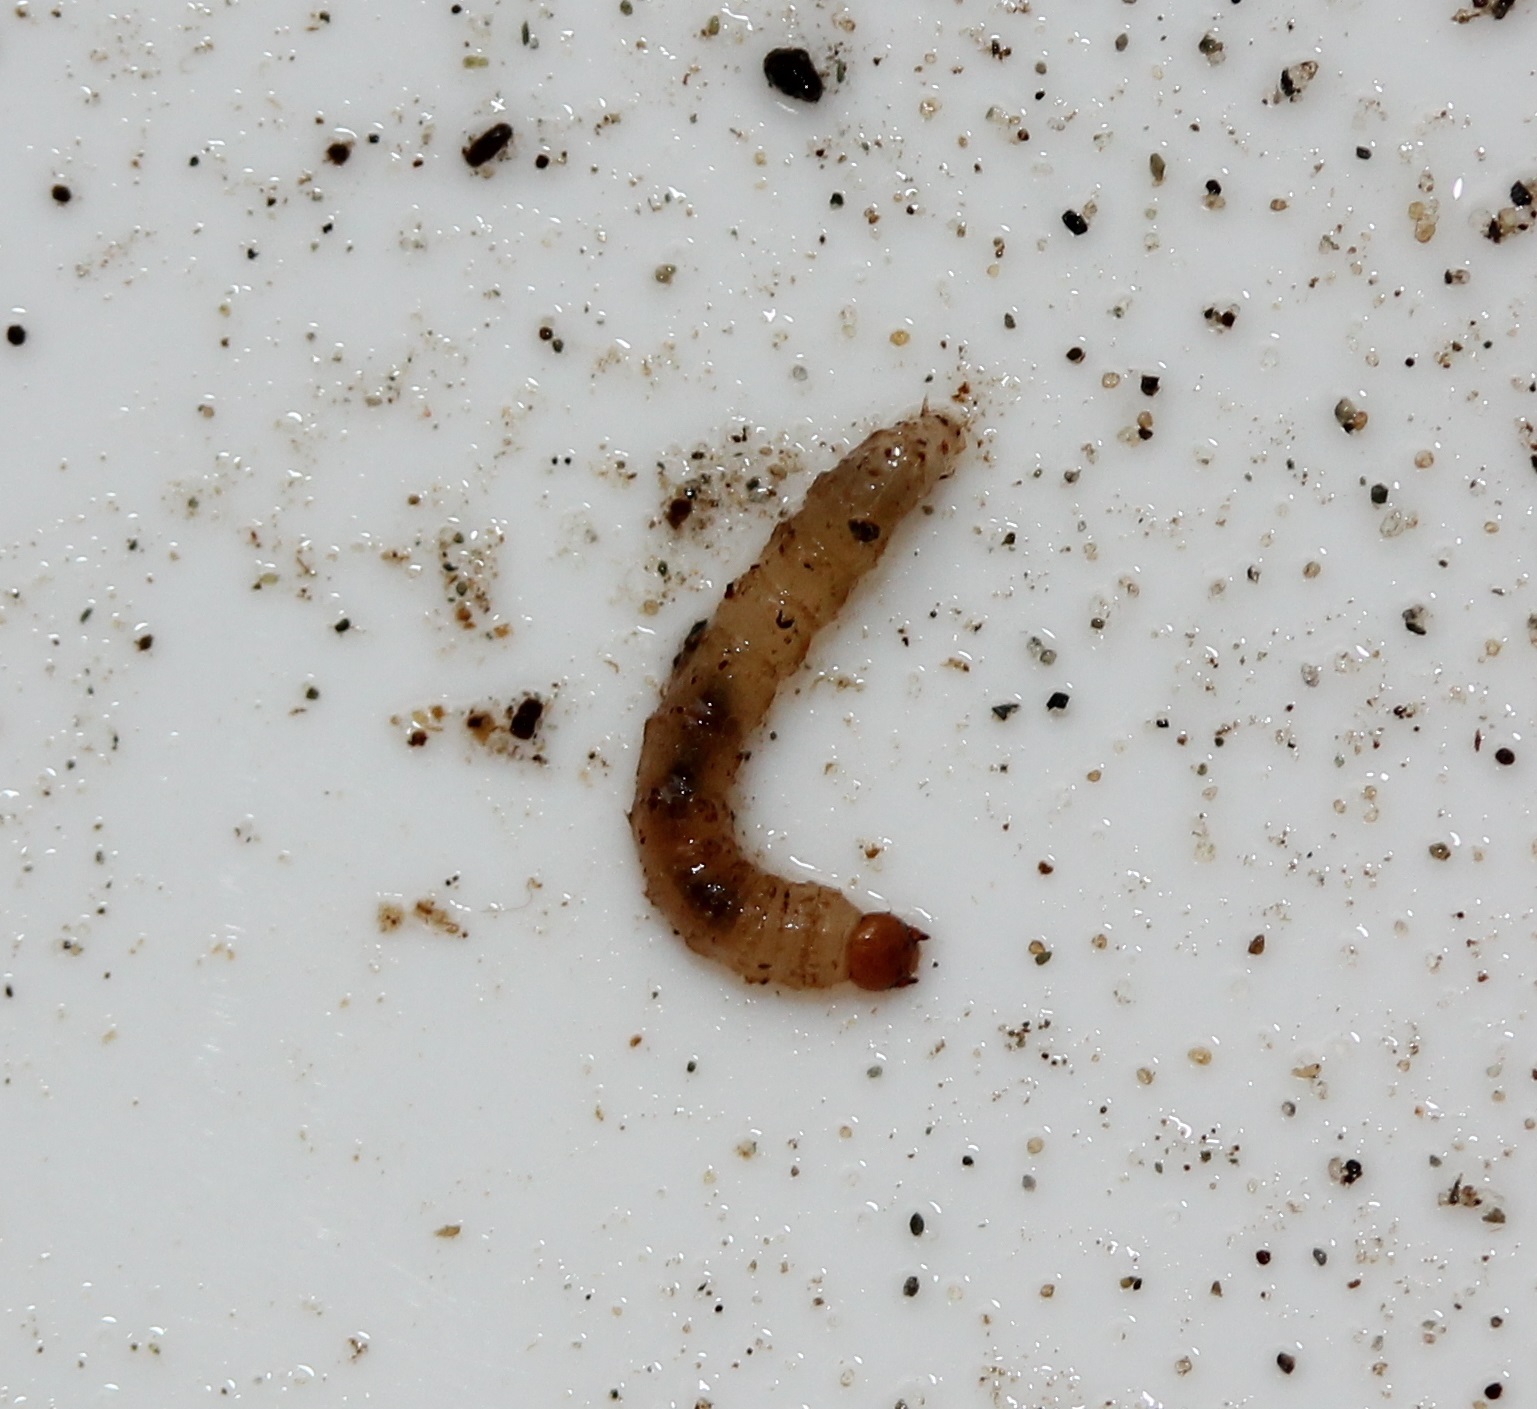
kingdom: Animalia
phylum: Arthropoda
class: Insecta
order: Diptera
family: Bibionidae
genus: Bibio
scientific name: Bibio
